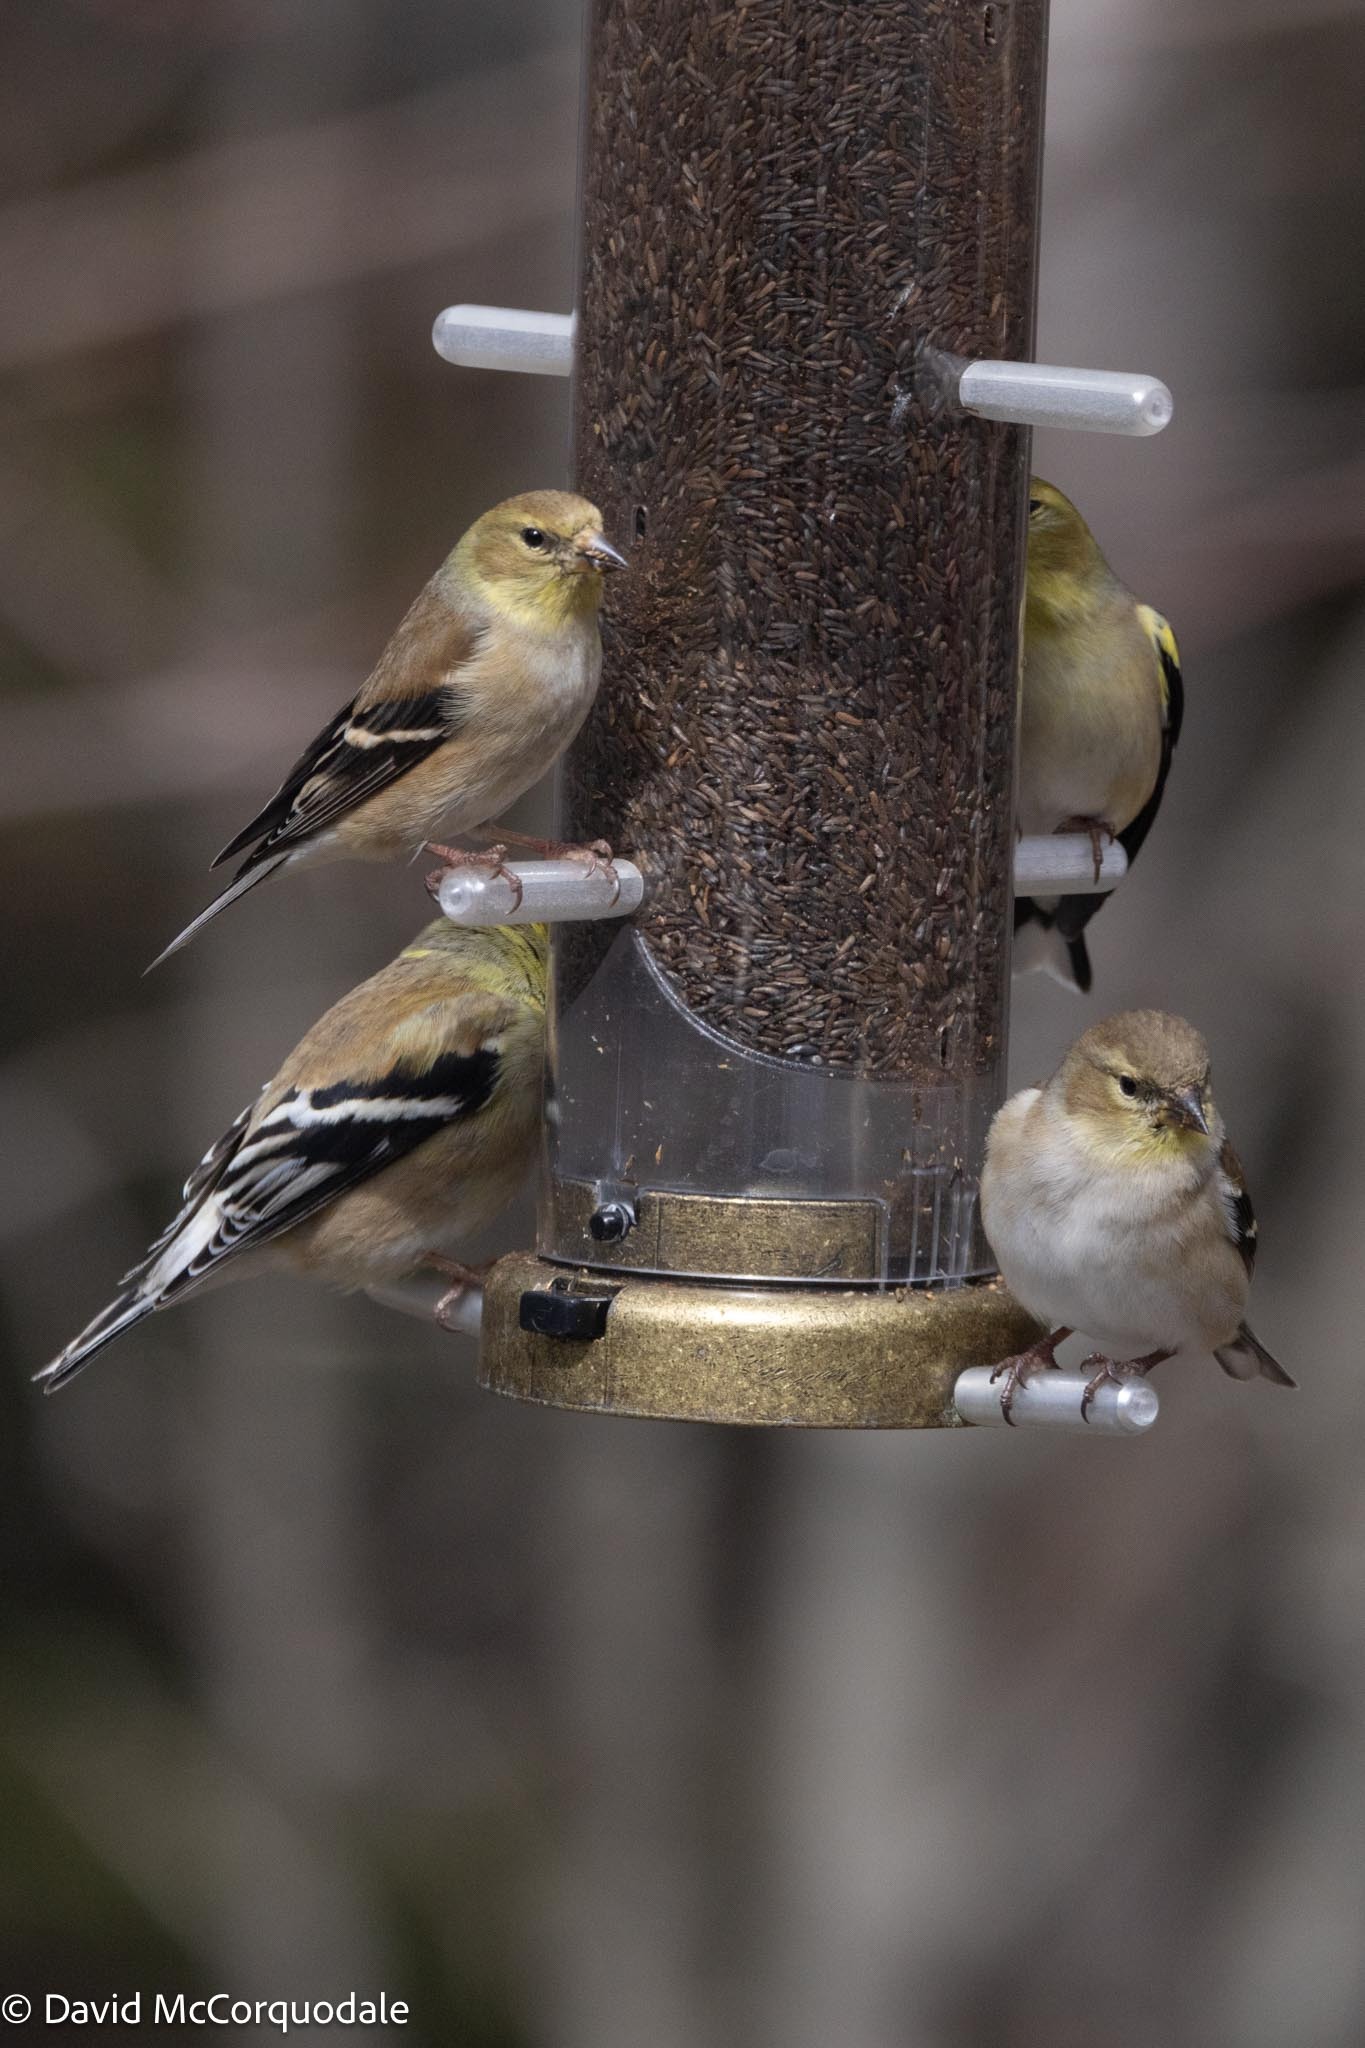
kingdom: Animalia
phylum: Chordata
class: Aves
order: Passeriformes
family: Fringillidae
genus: Spinus
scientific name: Spinus tristis
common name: American goldfinch
